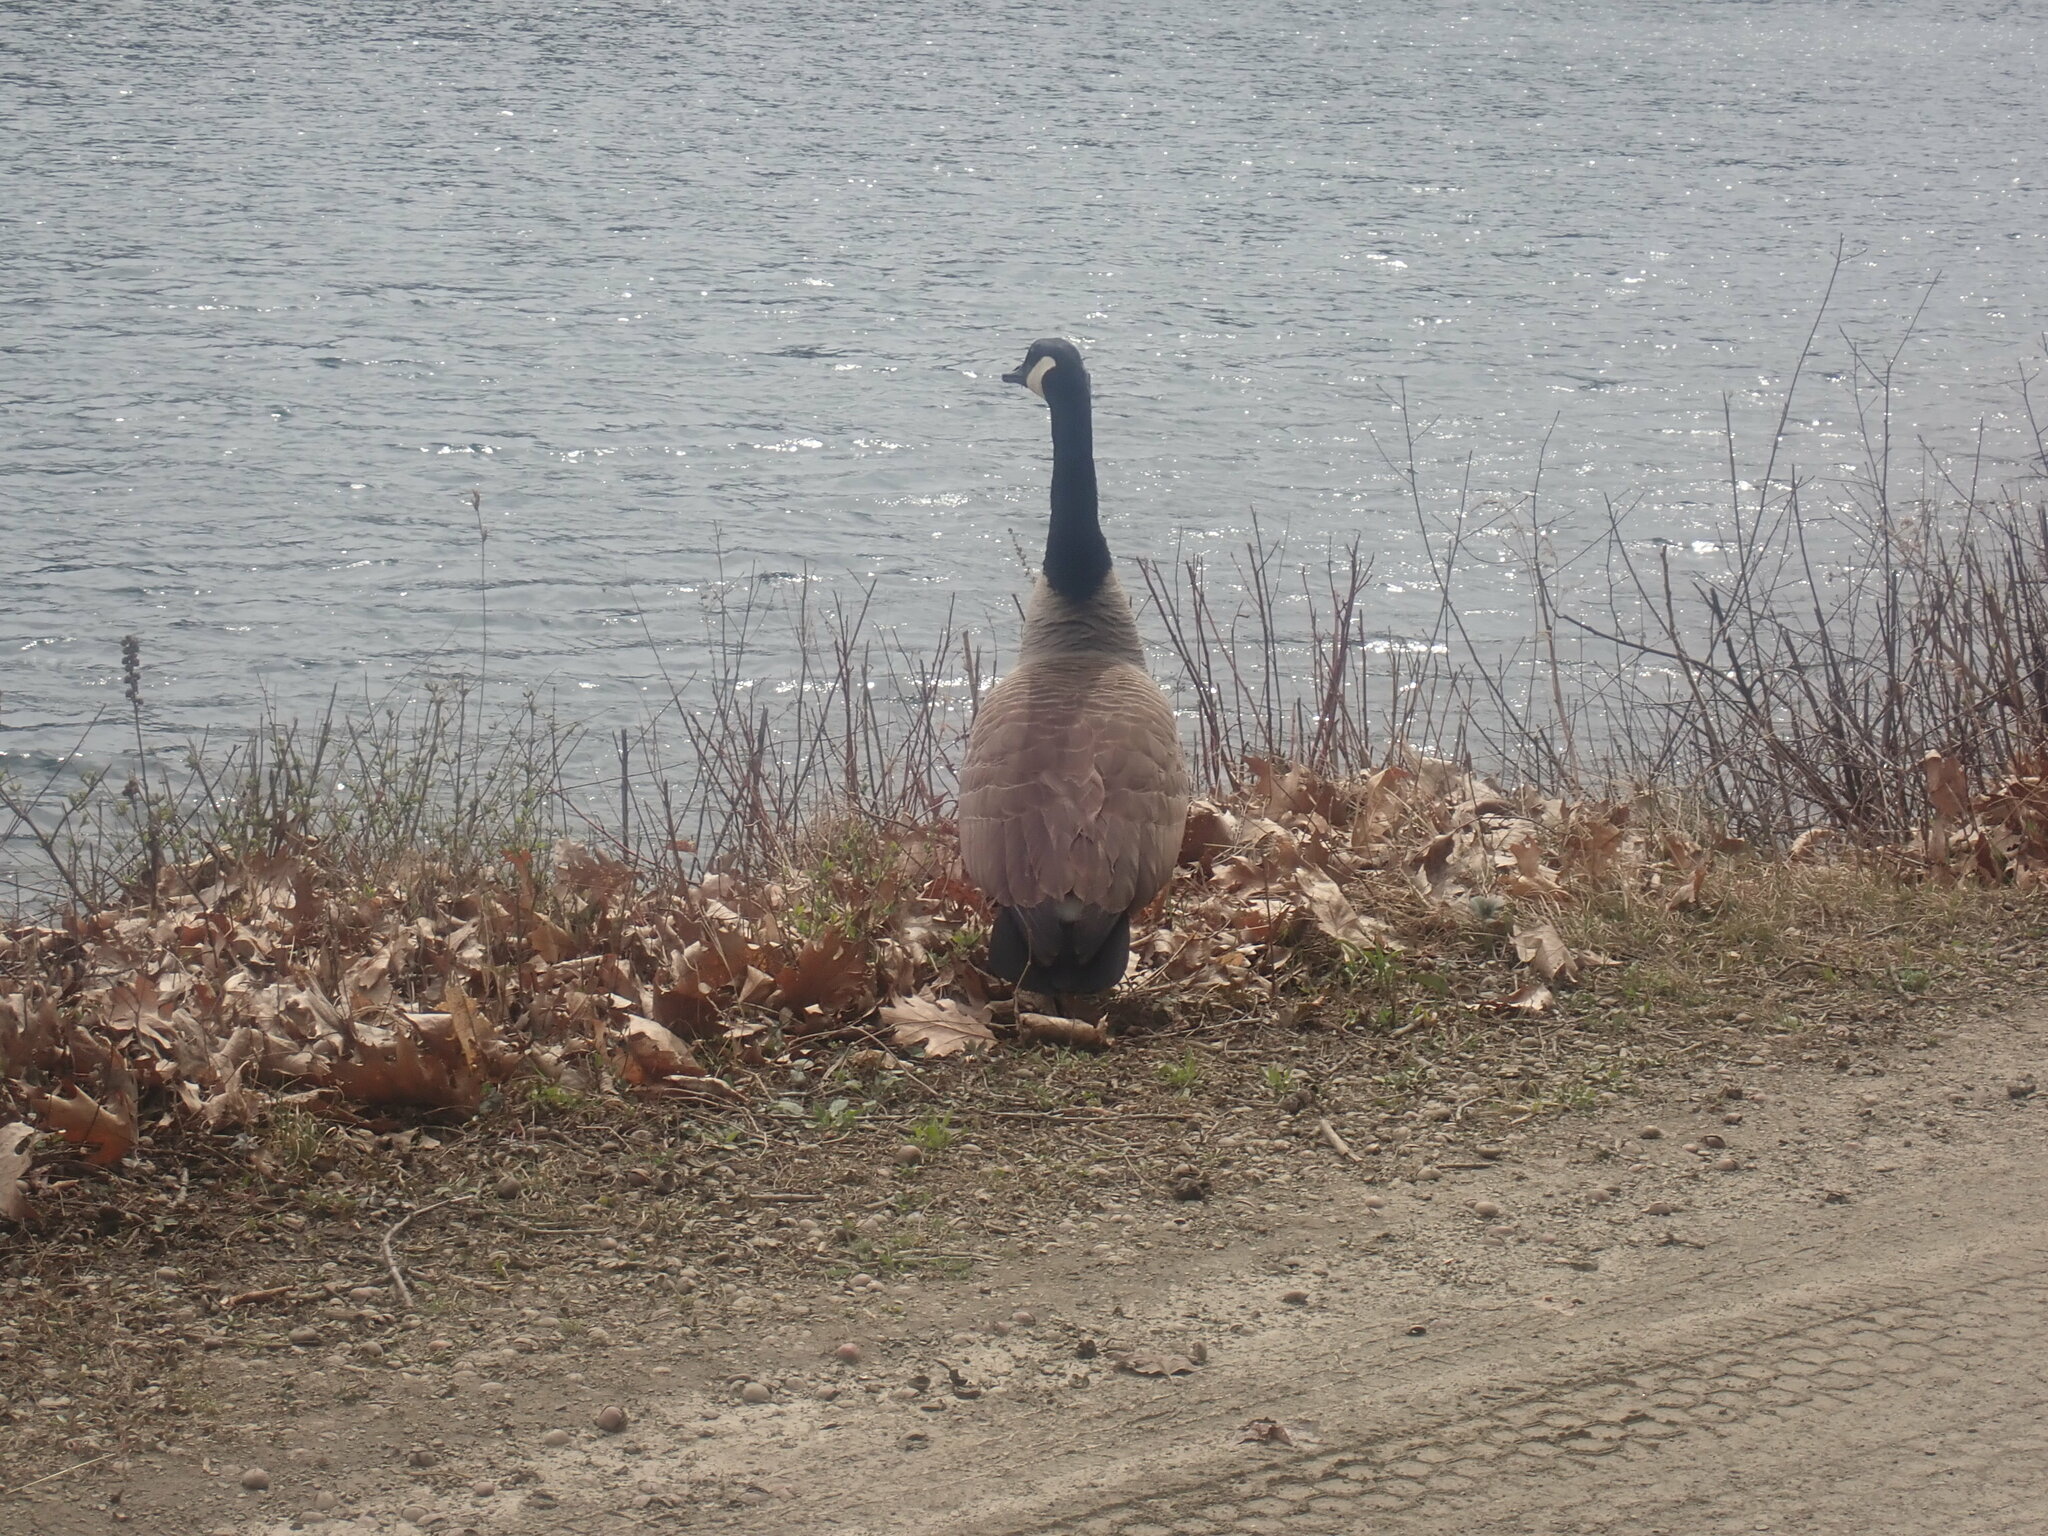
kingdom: Animalia
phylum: Chordata
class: Aves
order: Anseriformes
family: Anatidae
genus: Branta
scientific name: Branta canadensis
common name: Canada goose
